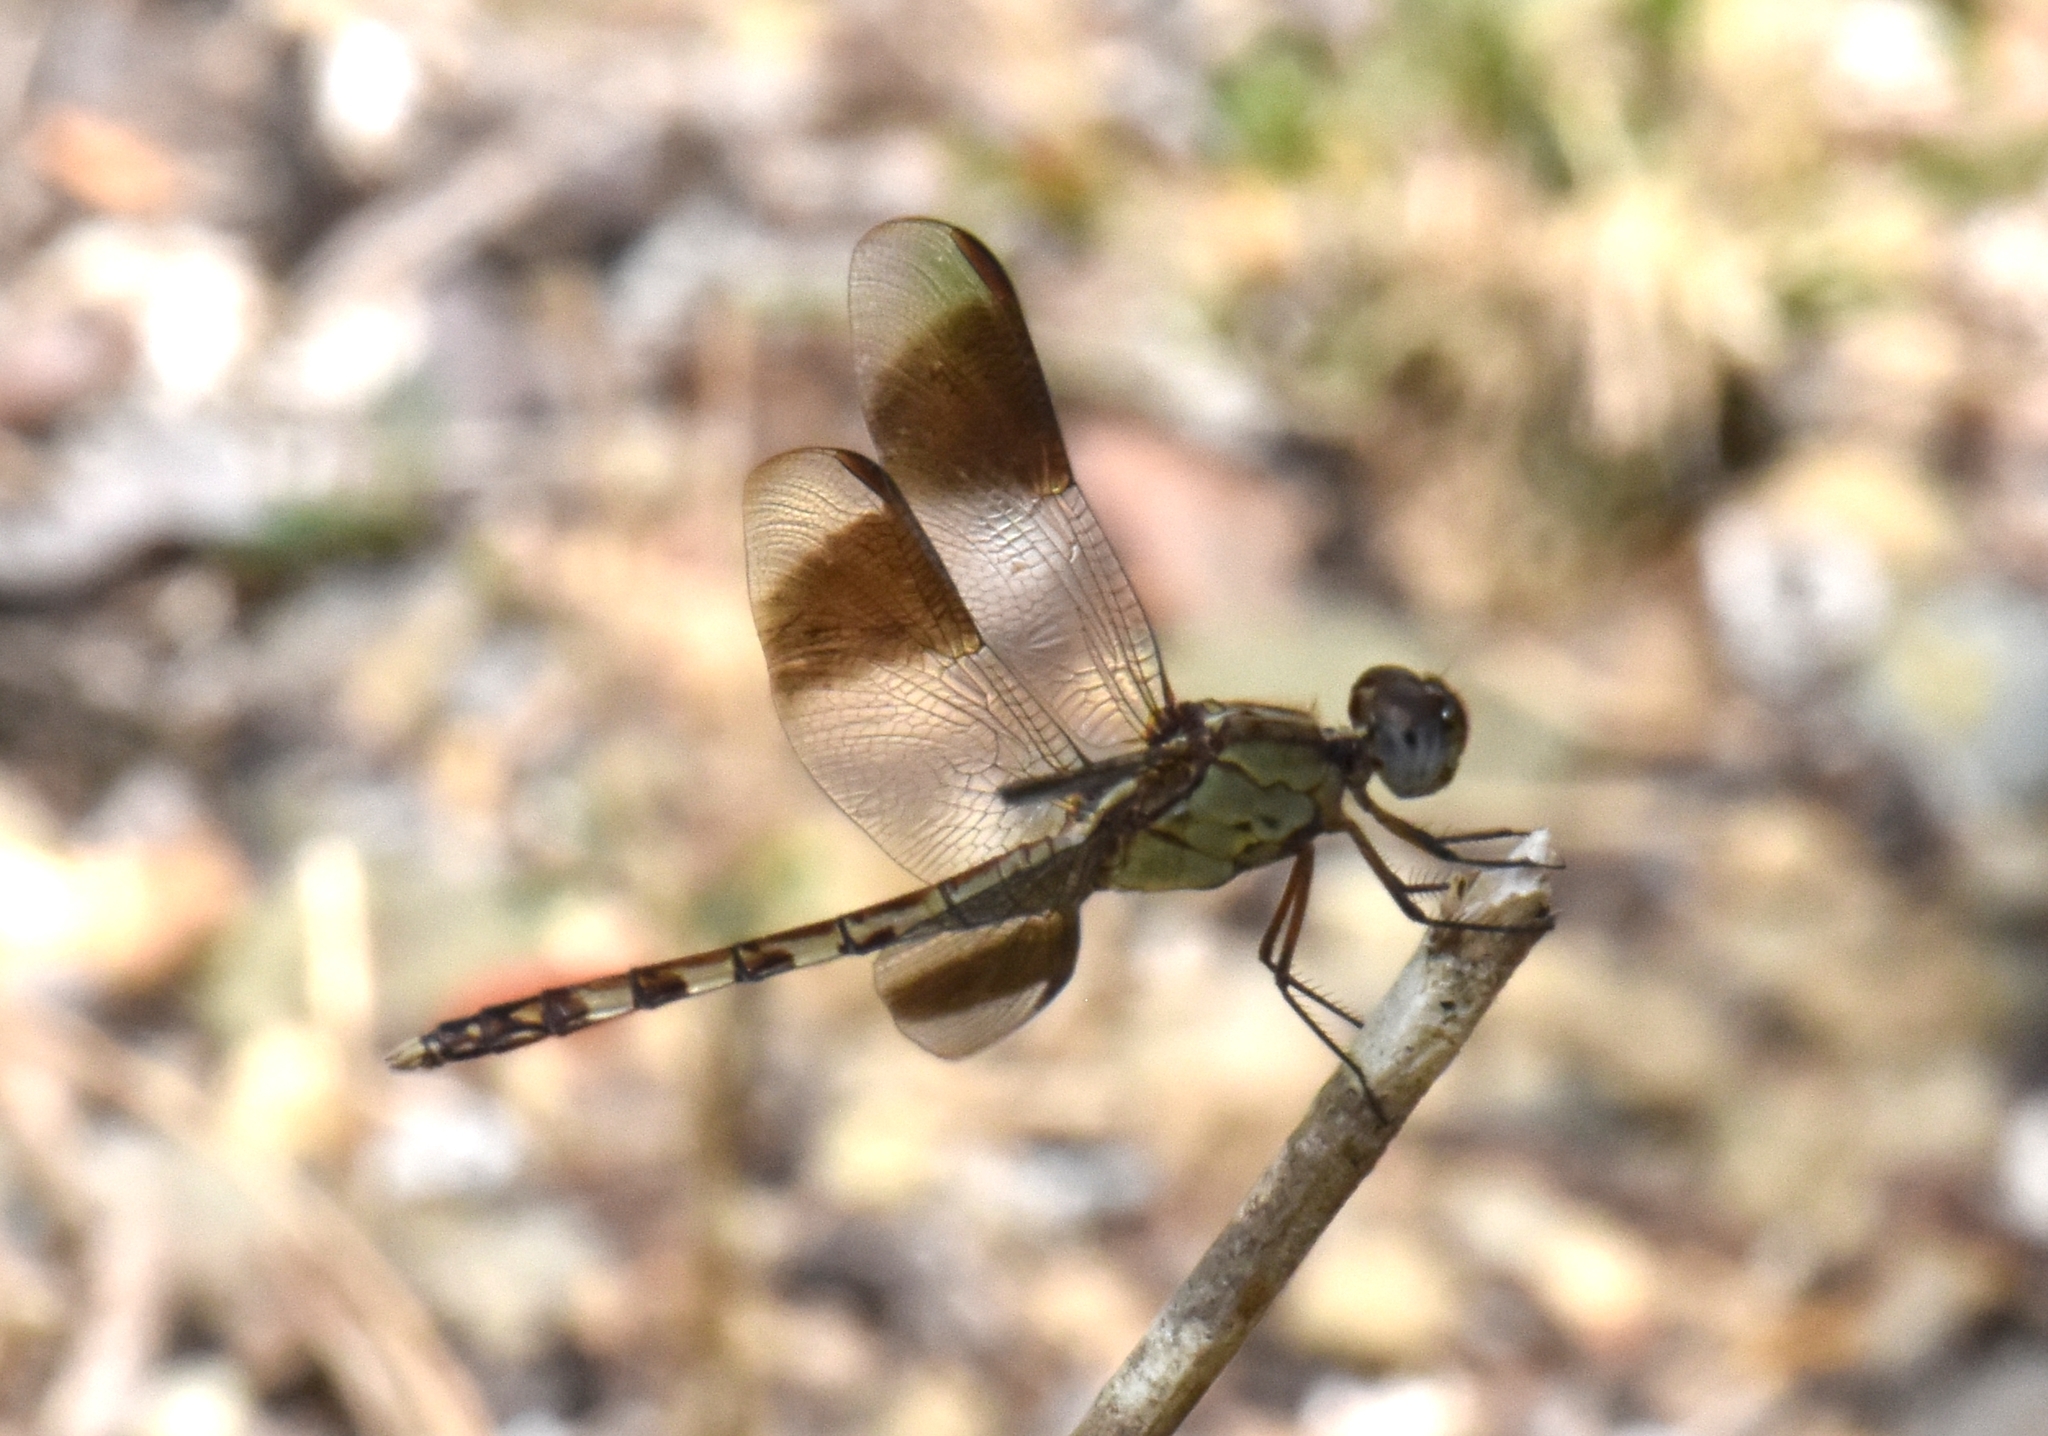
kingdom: Animalia
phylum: Arthropoda
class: Insecta
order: Odonata
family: Libellulidae
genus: Erythrodiplax
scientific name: Erythrodiplax umbrata
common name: Band-winged dragonlet
